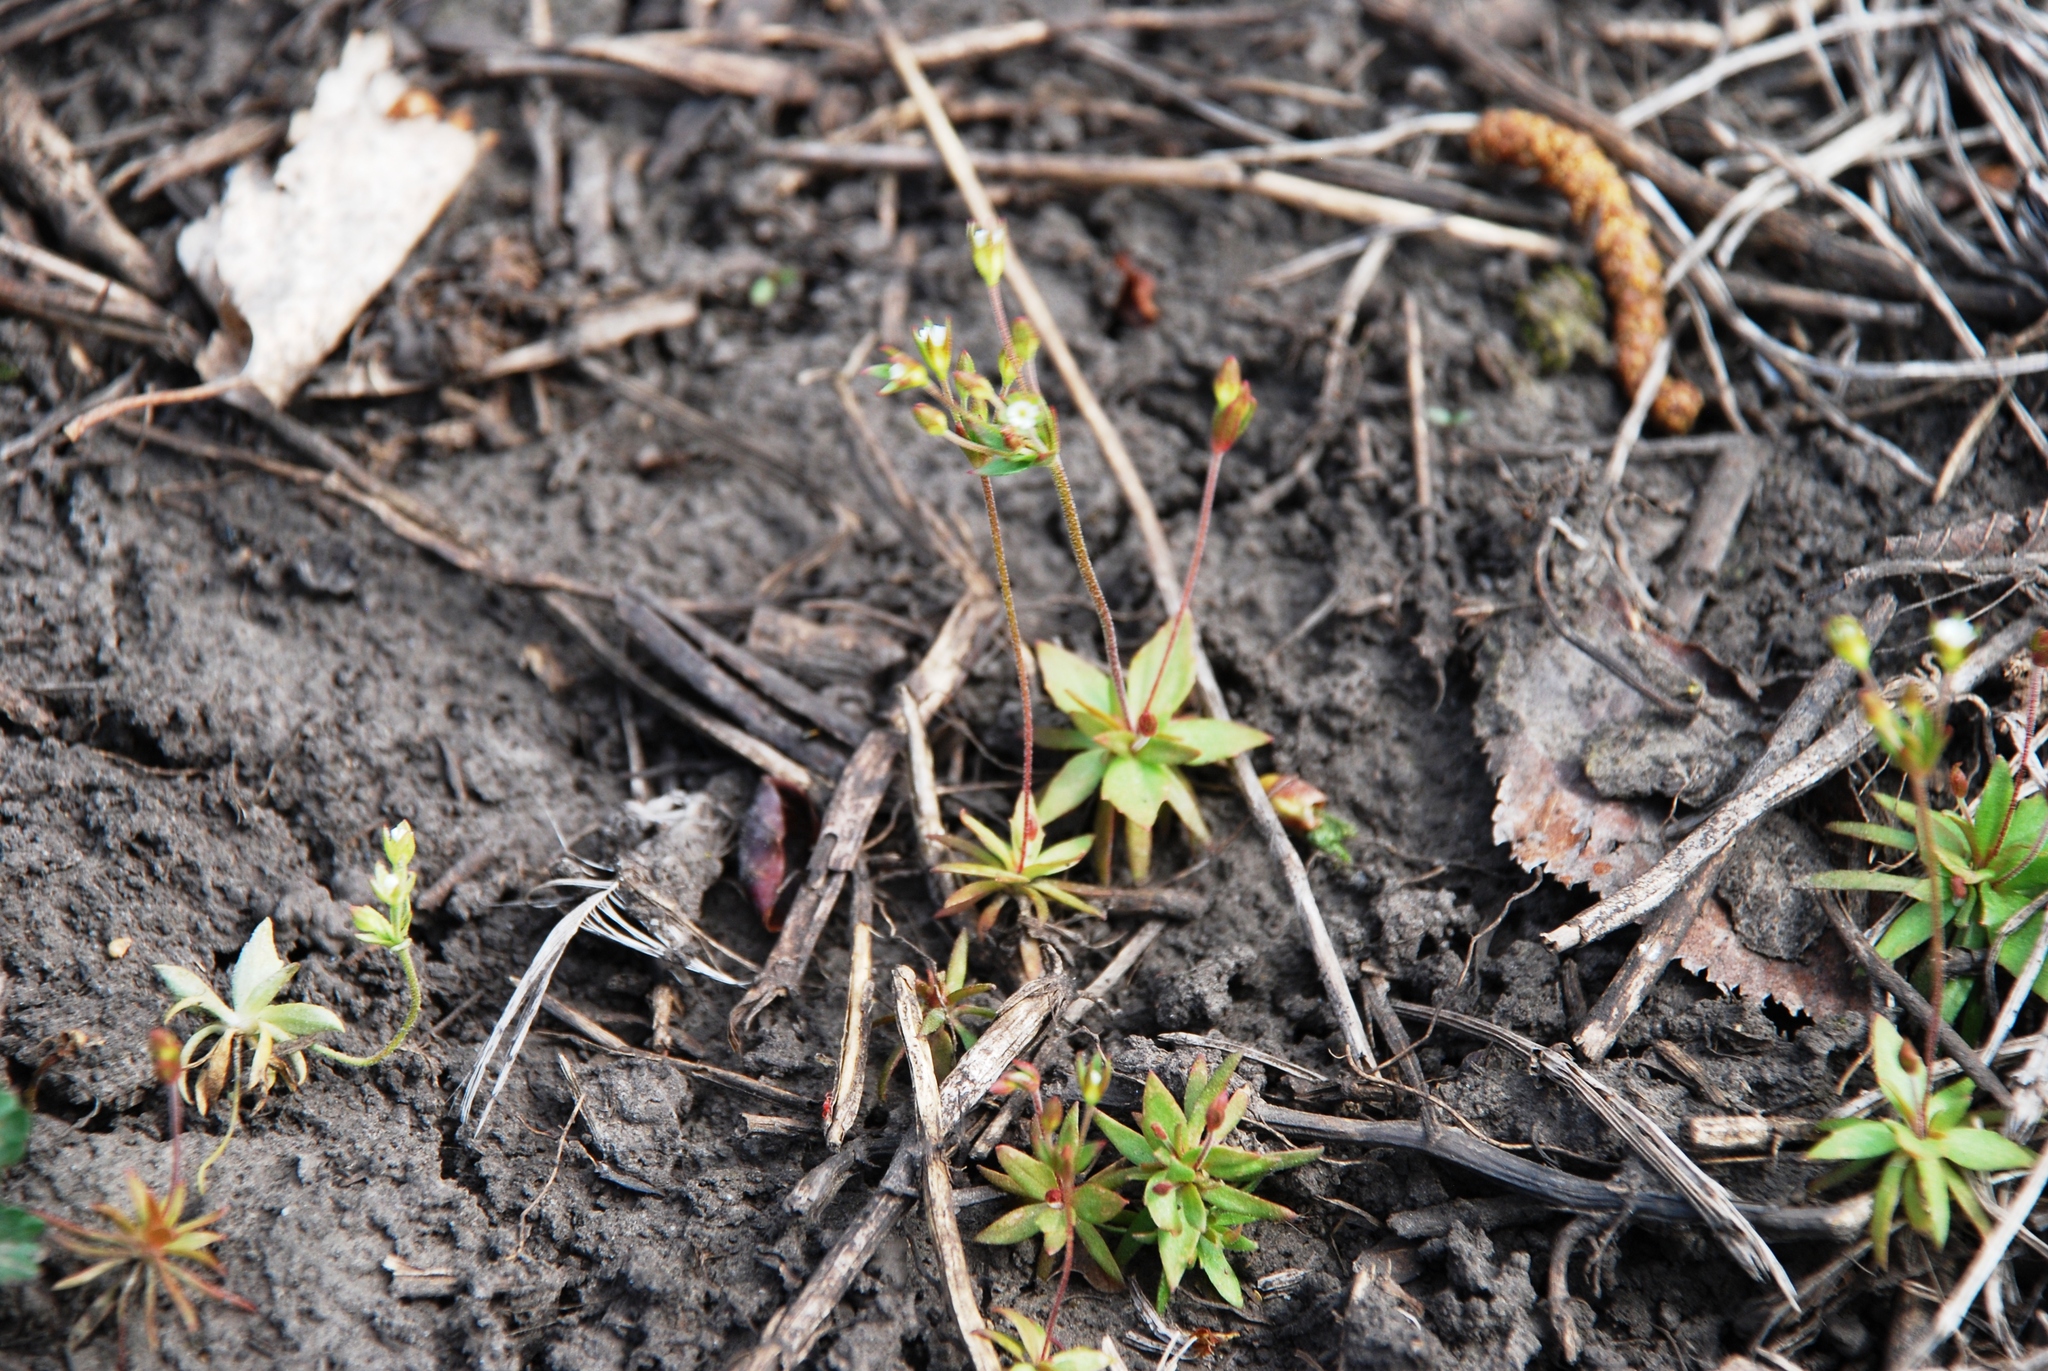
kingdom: Plantae
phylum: Tracheophyta
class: Magnoliopsida
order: Ericales
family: Primulaceae
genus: Androsace
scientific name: Androsace elongata
